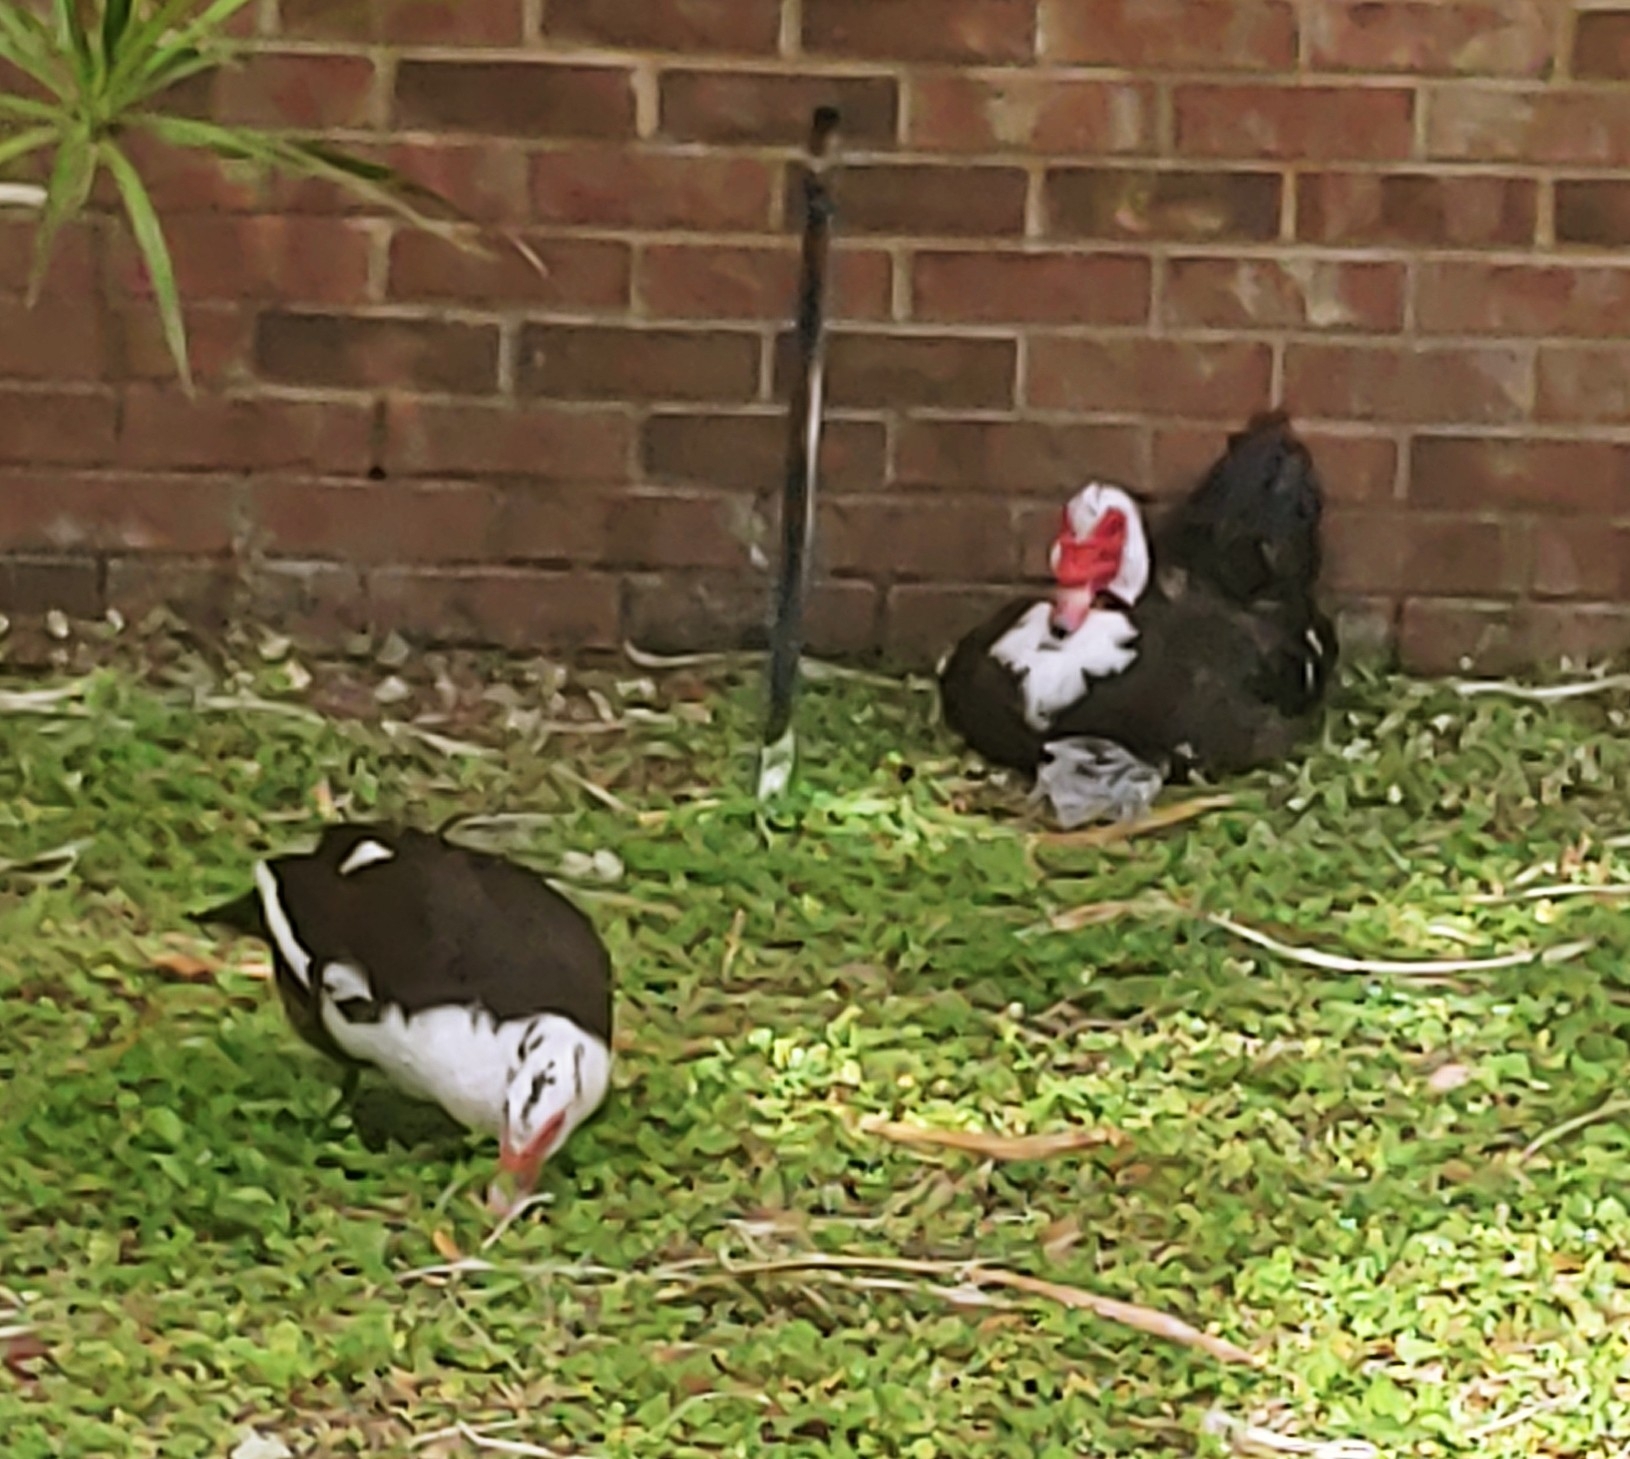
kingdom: Animalia
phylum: Chordata
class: Aves
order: Anseriformes
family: Anatidae
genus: Cairina
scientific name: Cairina moschata
